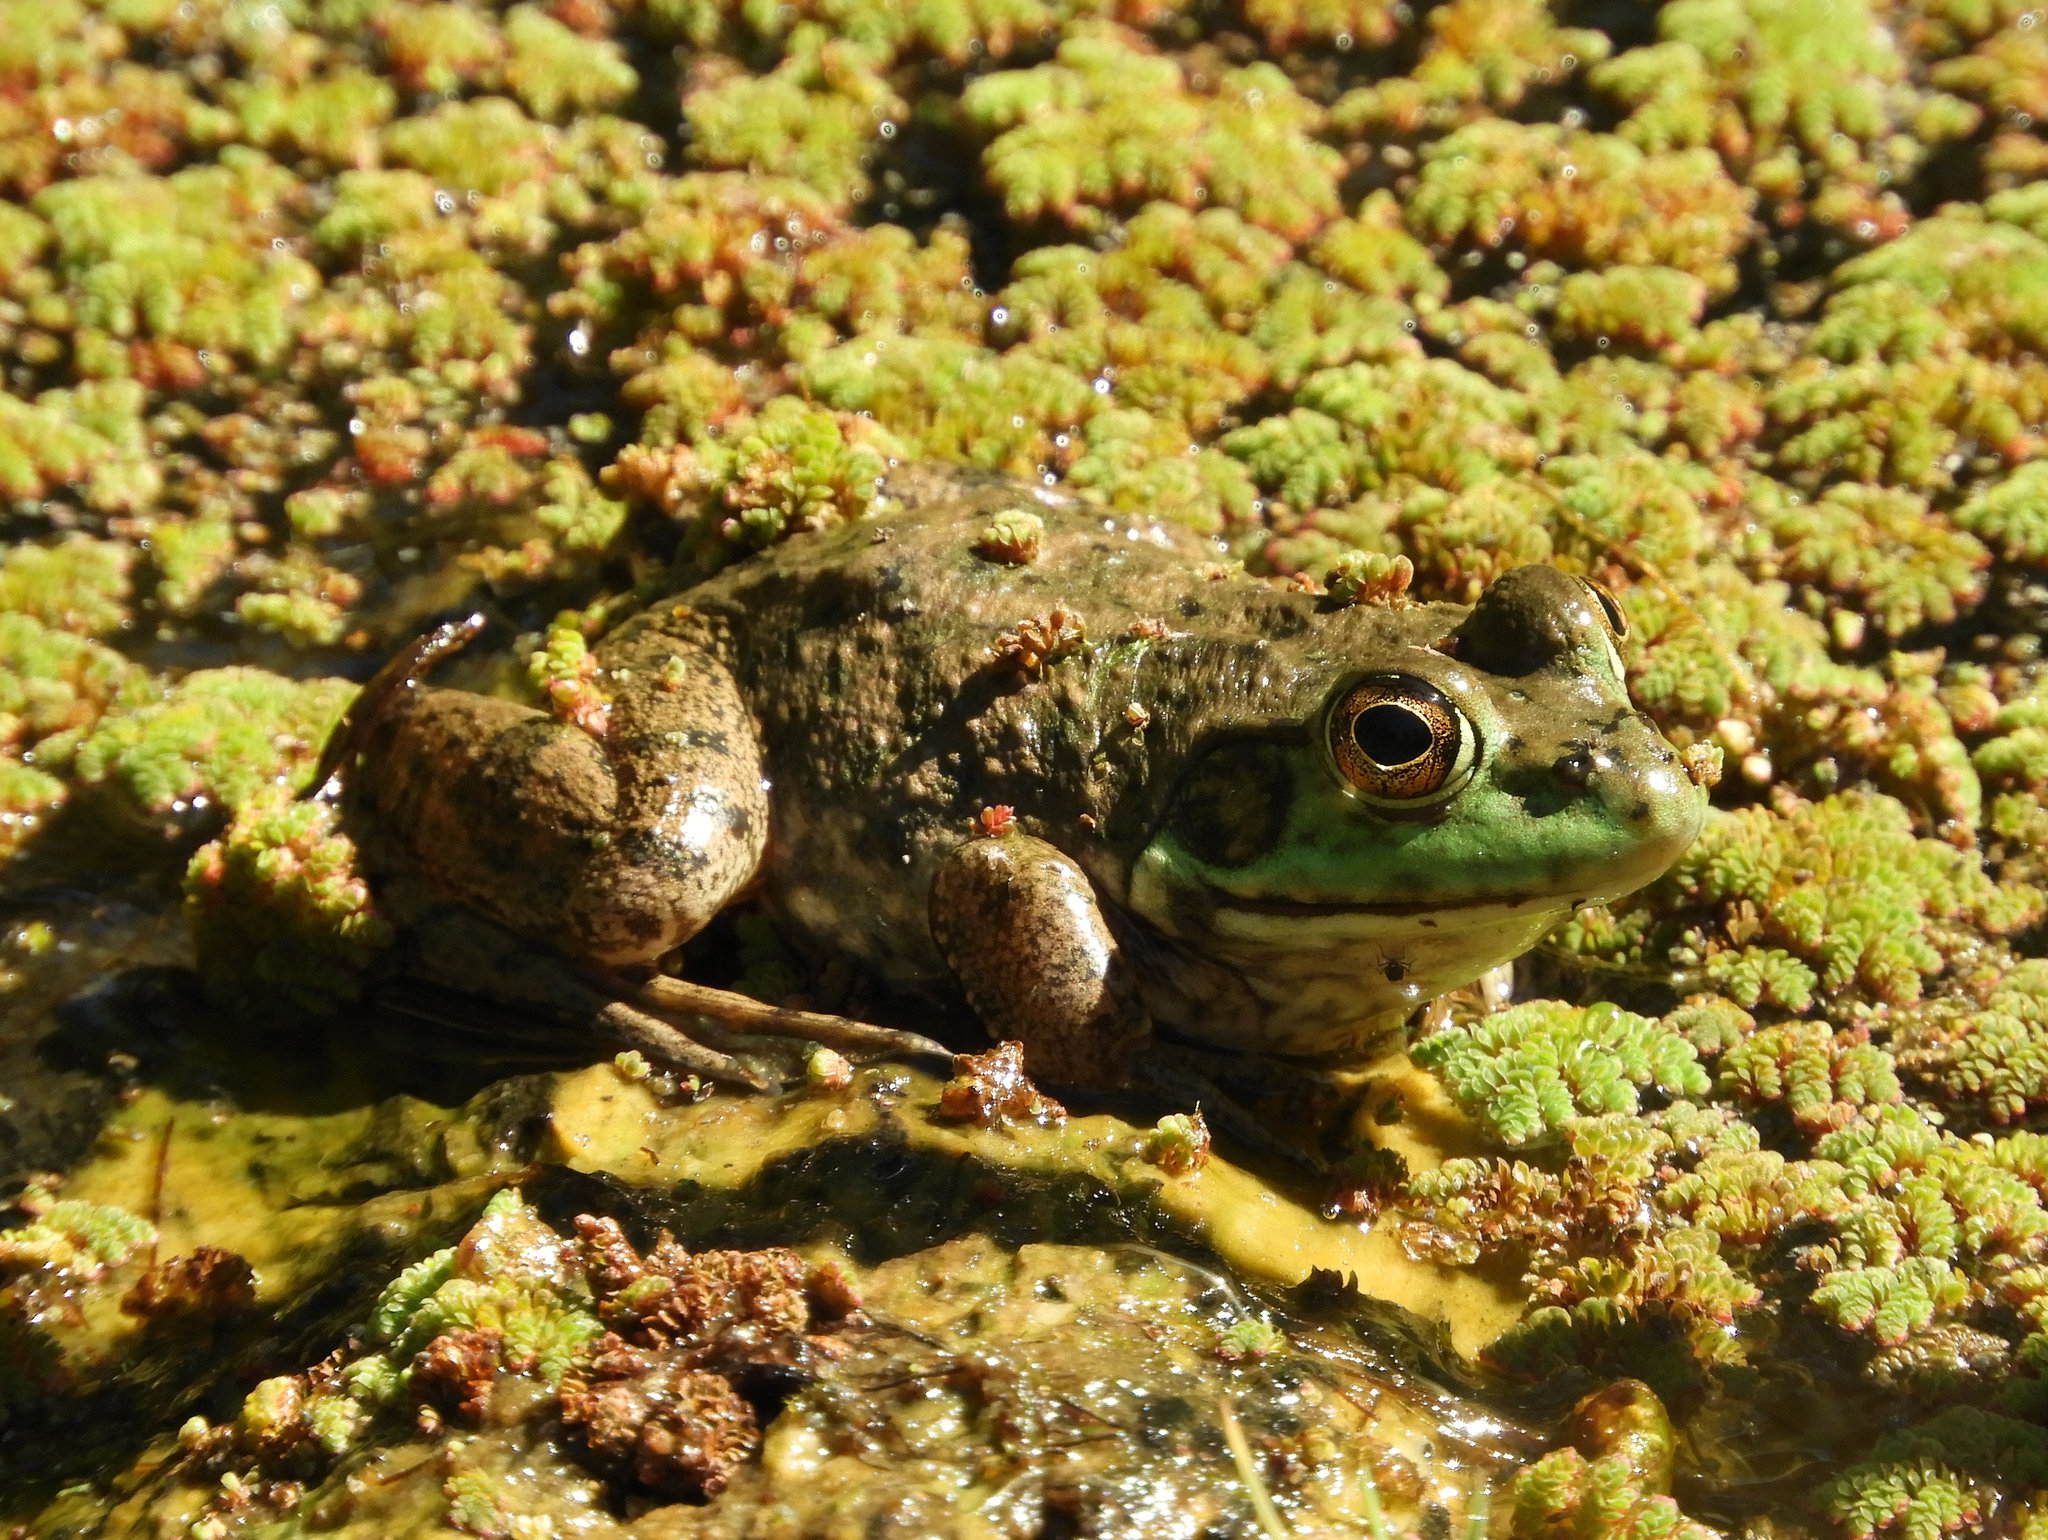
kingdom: Animalia
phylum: Chordata
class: Amphibia
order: Anura
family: Ranidae
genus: Lithobates
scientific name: Lithobates catesbeianus
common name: American bullfrog
